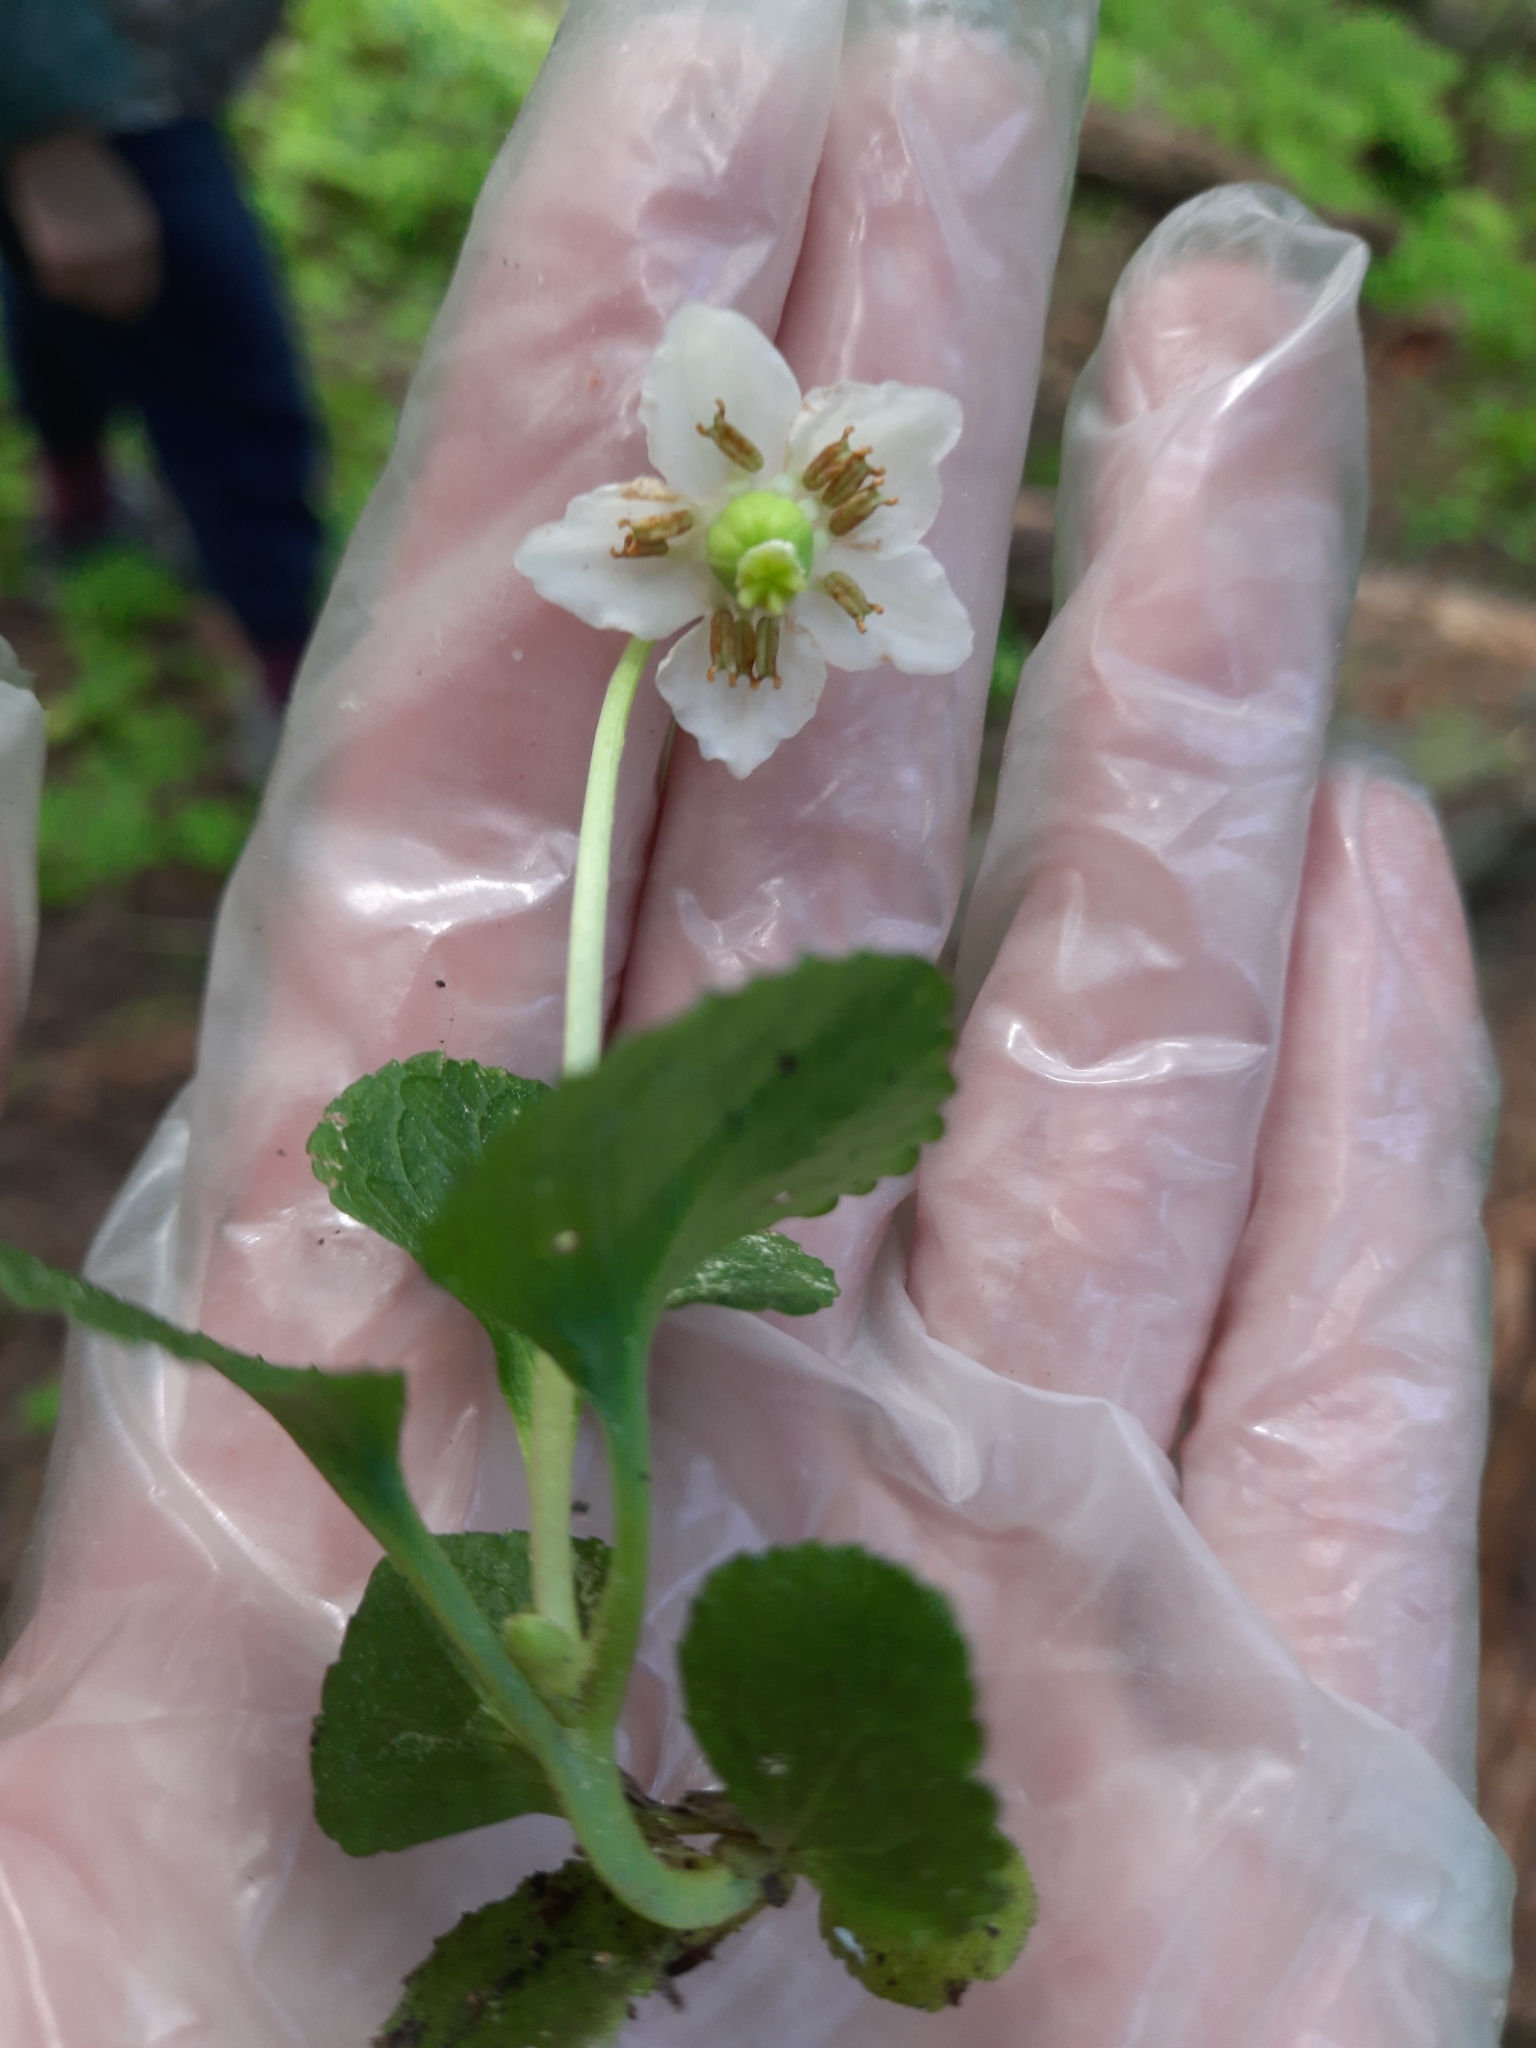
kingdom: Plantae
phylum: Tracheophyta
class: Magnoliopsida
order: Ericales
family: Ericaceae
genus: Moneses
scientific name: Moneses uniflora
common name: One-flowered wintergreen
